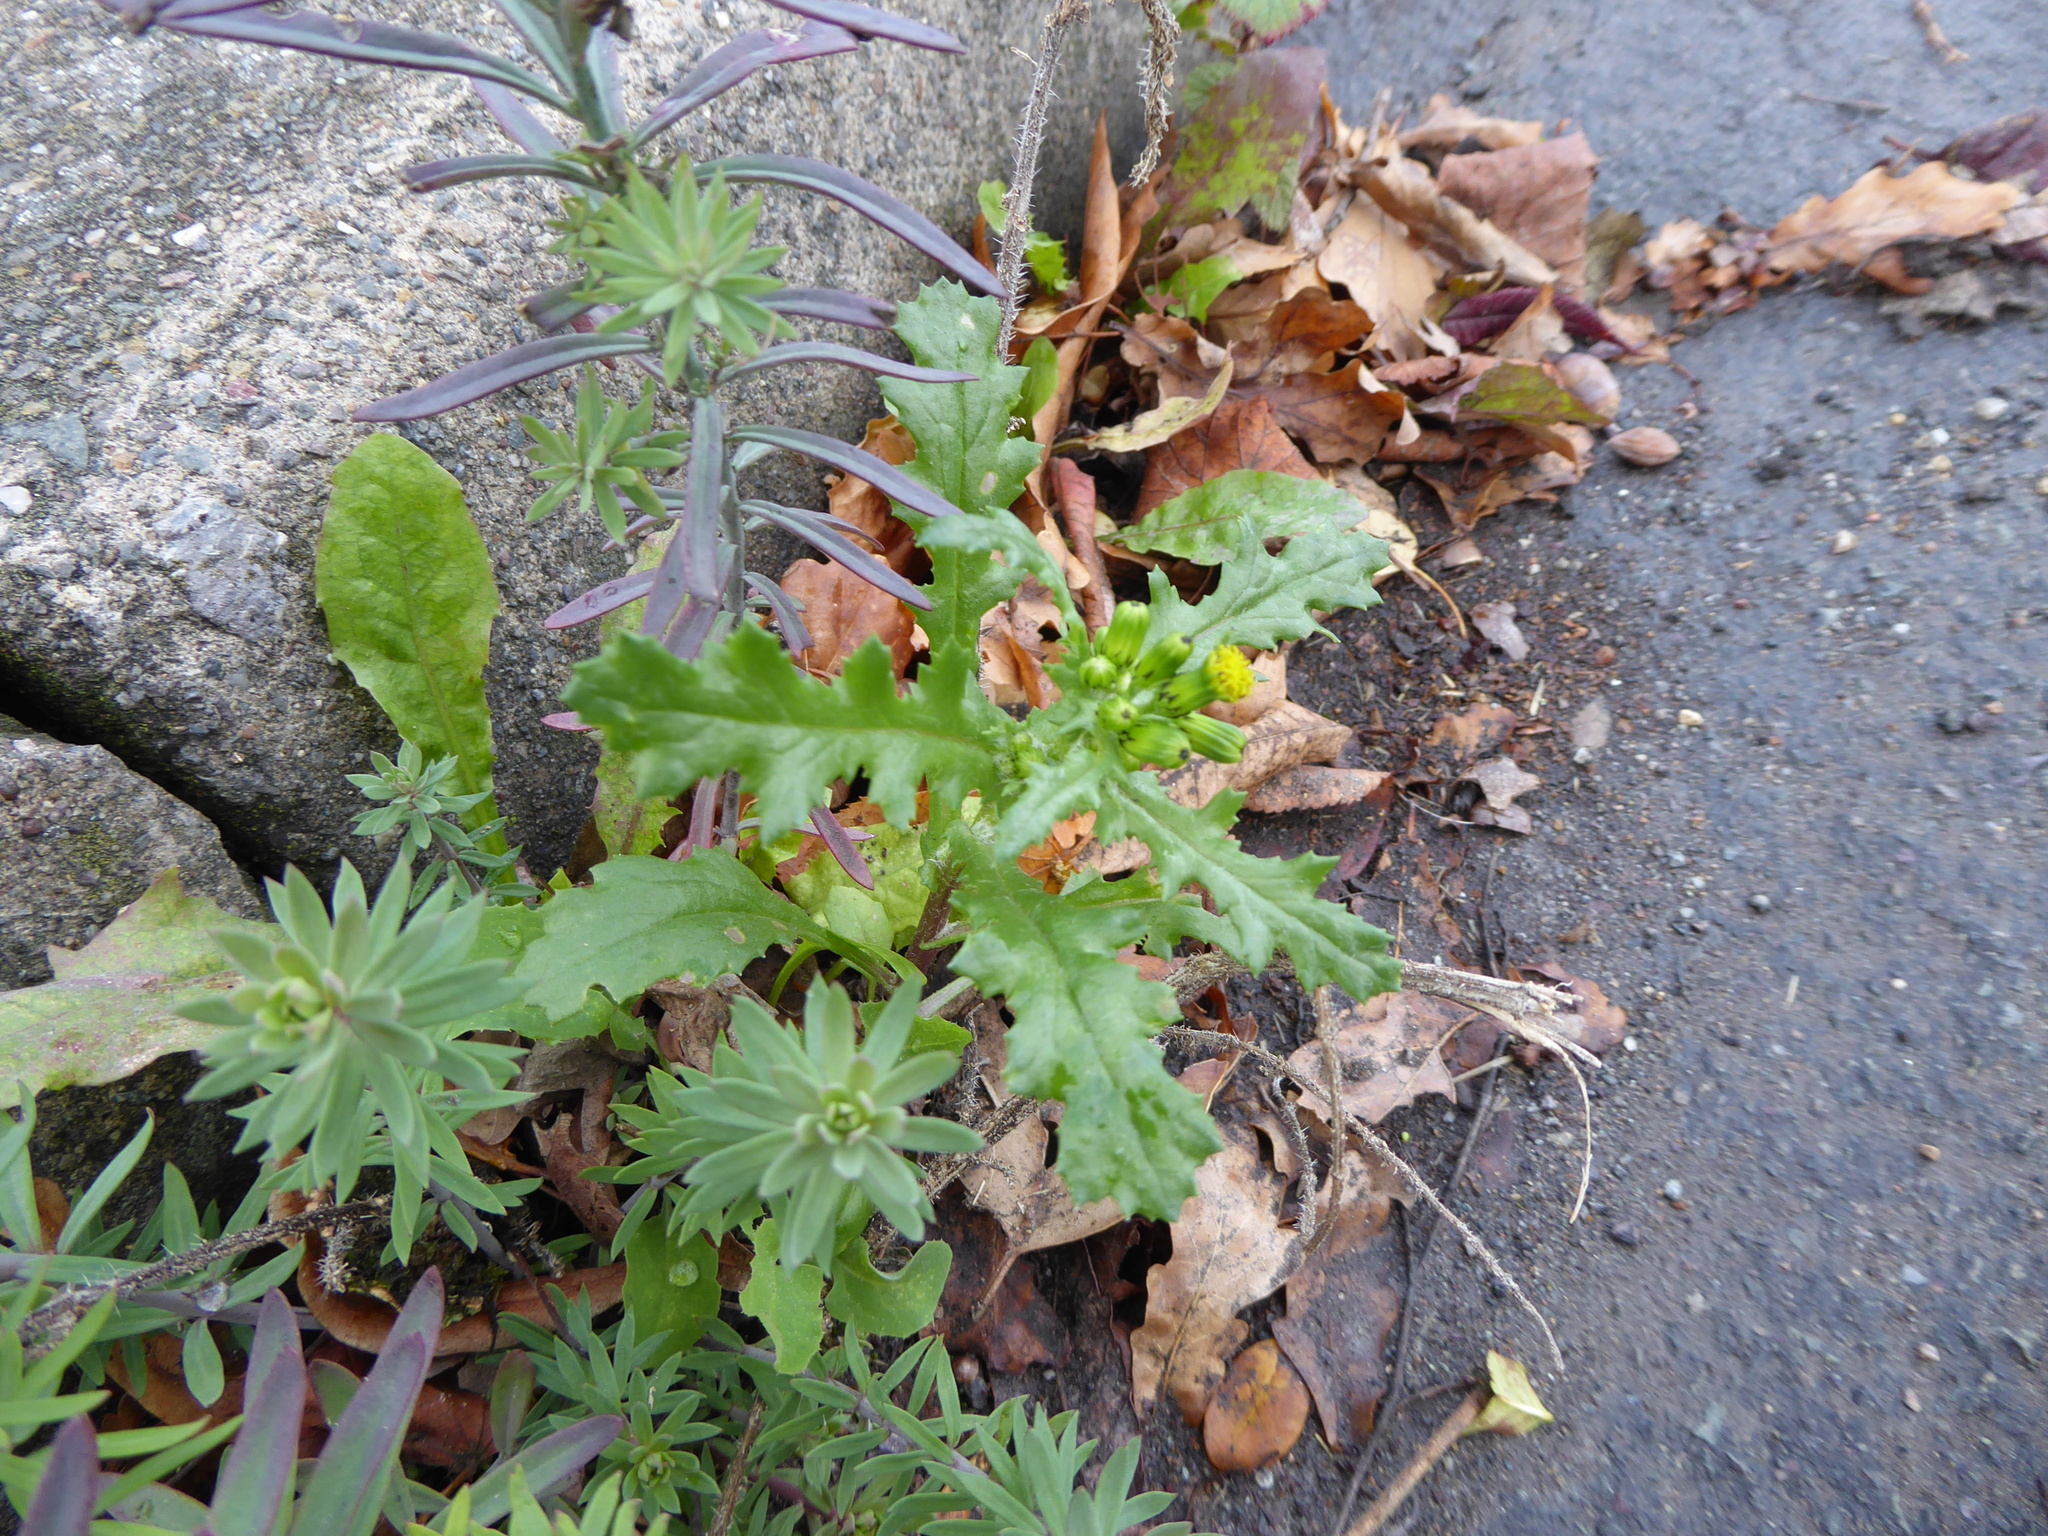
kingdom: Plantae
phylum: Tracheophyta
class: Magnoliopsida
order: Asterales
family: Asteraceae
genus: Senecio
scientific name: Senecio vulgaris
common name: Old-man-in-the-spring
